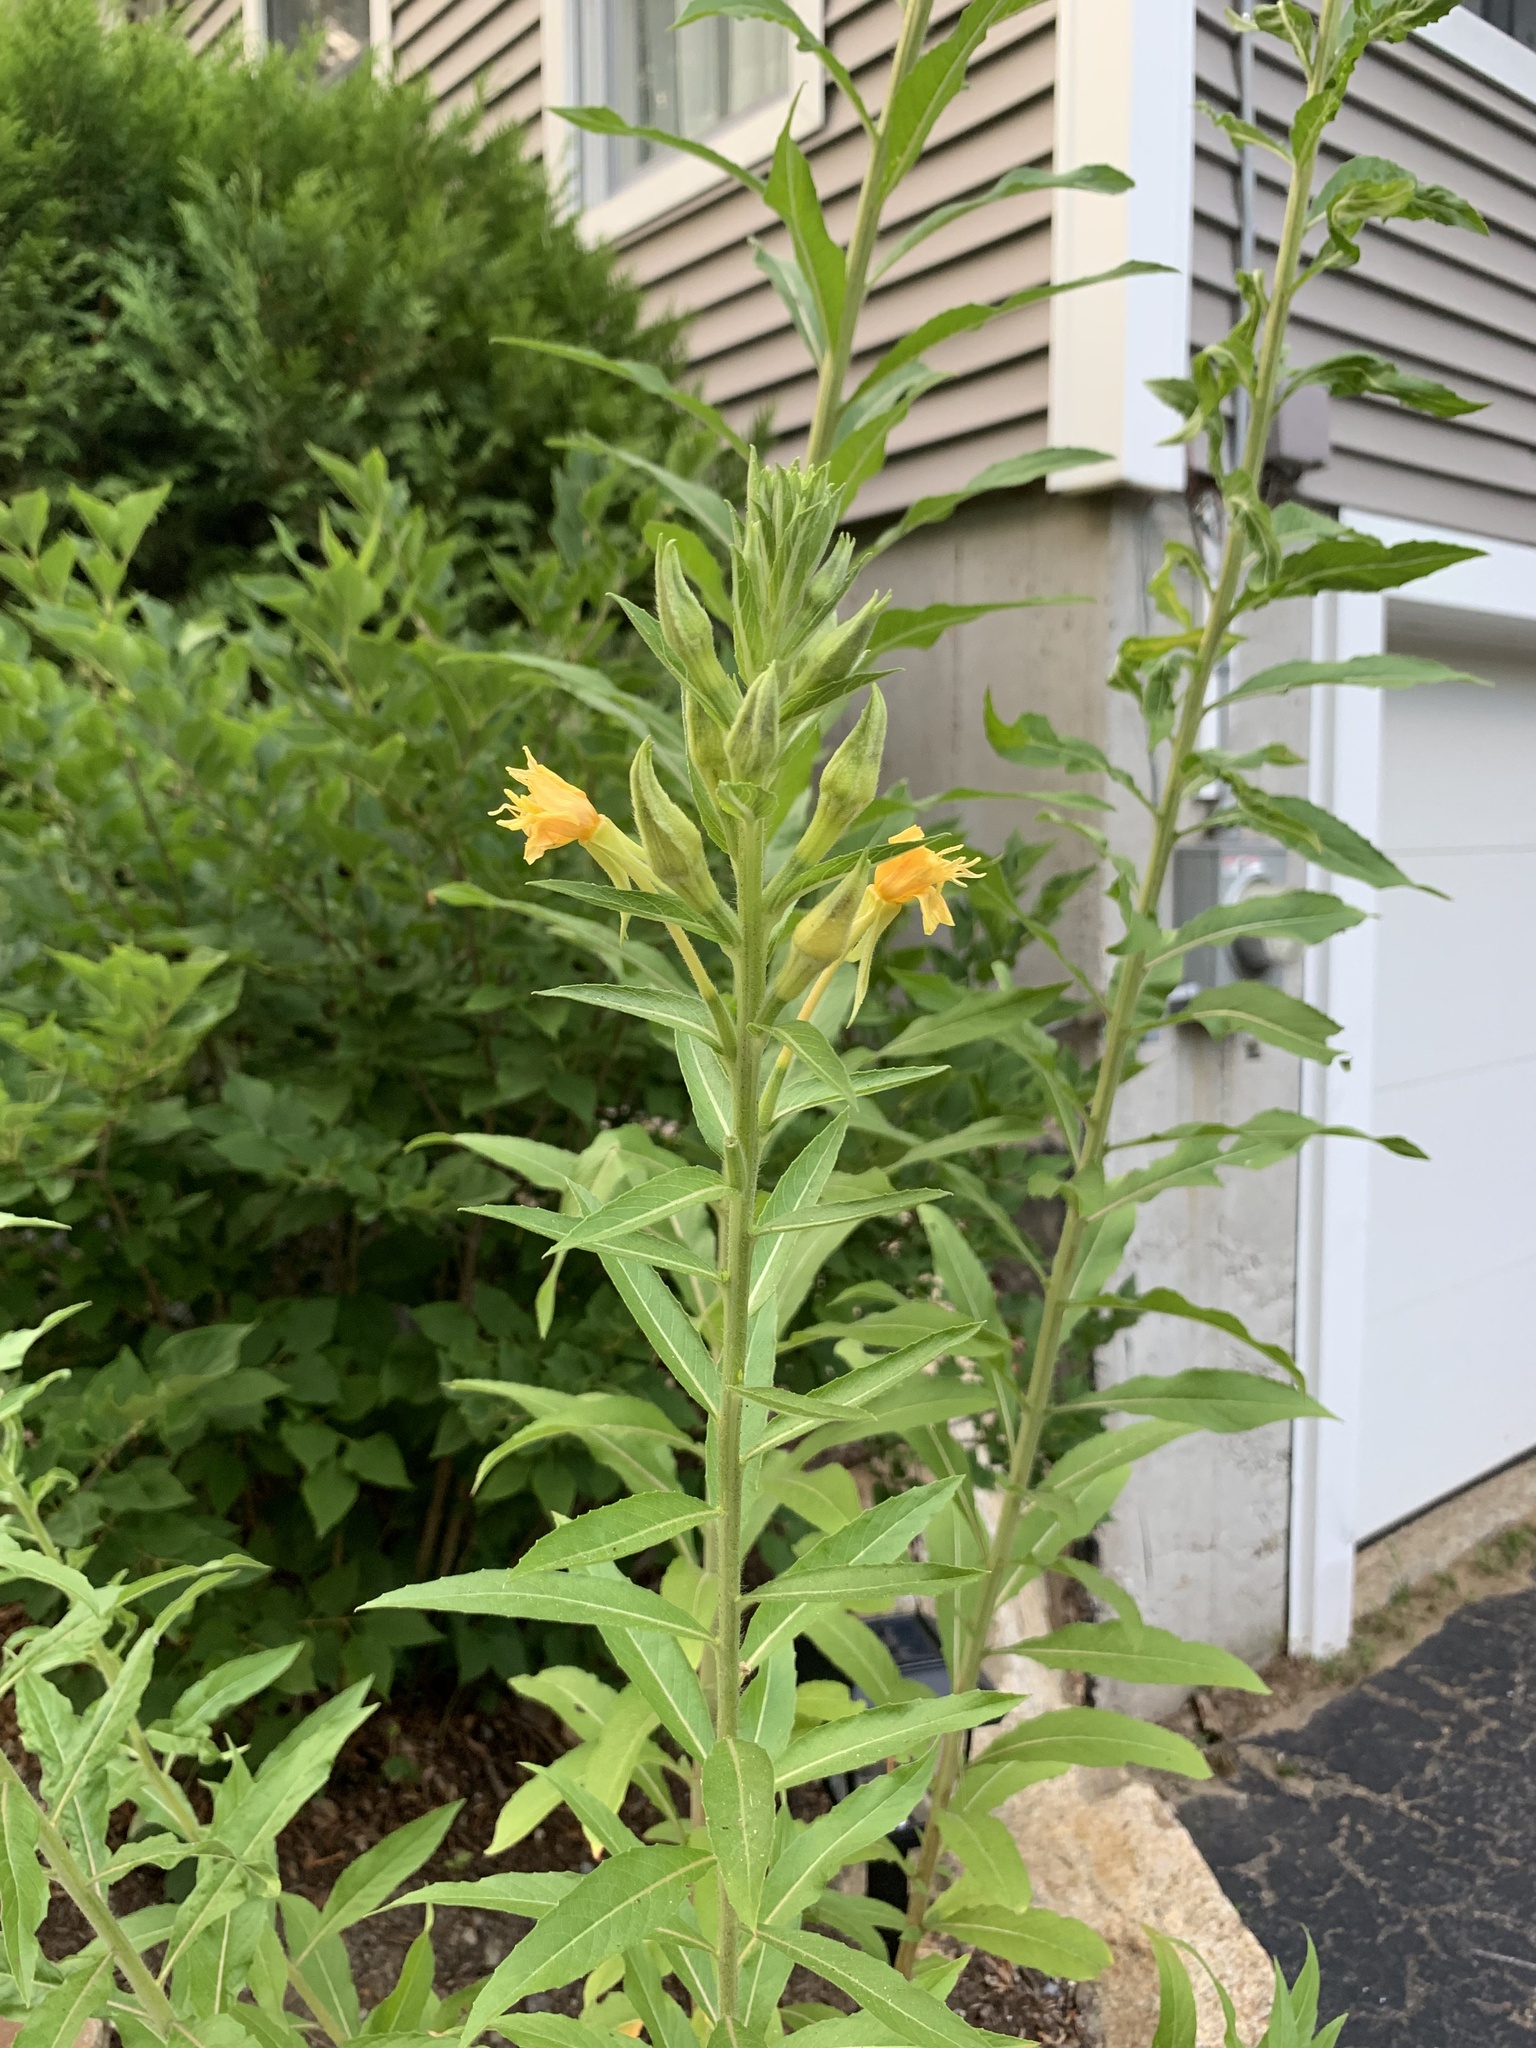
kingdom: Plantae
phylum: Tracheophyta
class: Magnoliopsida
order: Myrtales
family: Onagraceae
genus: Oenothera
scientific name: Oenothera biennis
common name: Common evening-primrose
